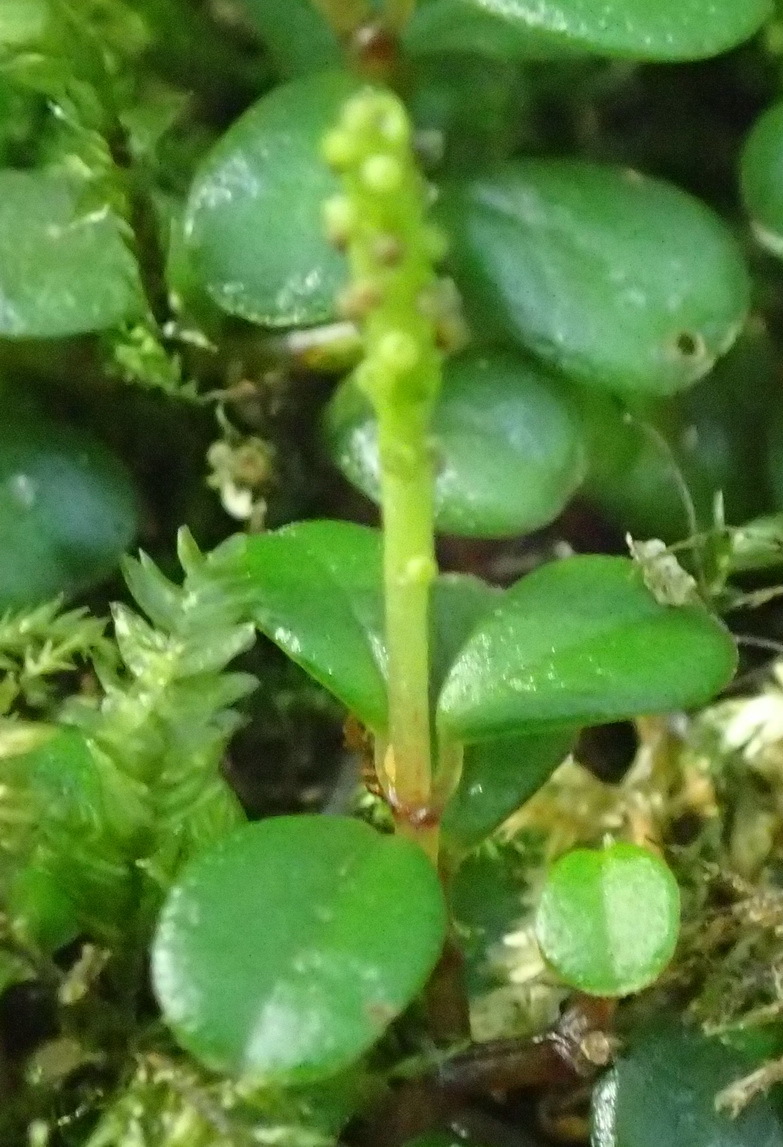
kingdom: Plantae
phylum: Tracheophyta
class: Magnoliopsida
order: Piperales
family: Piperaceae
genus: Peperomia
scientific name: Peperomia retusa
